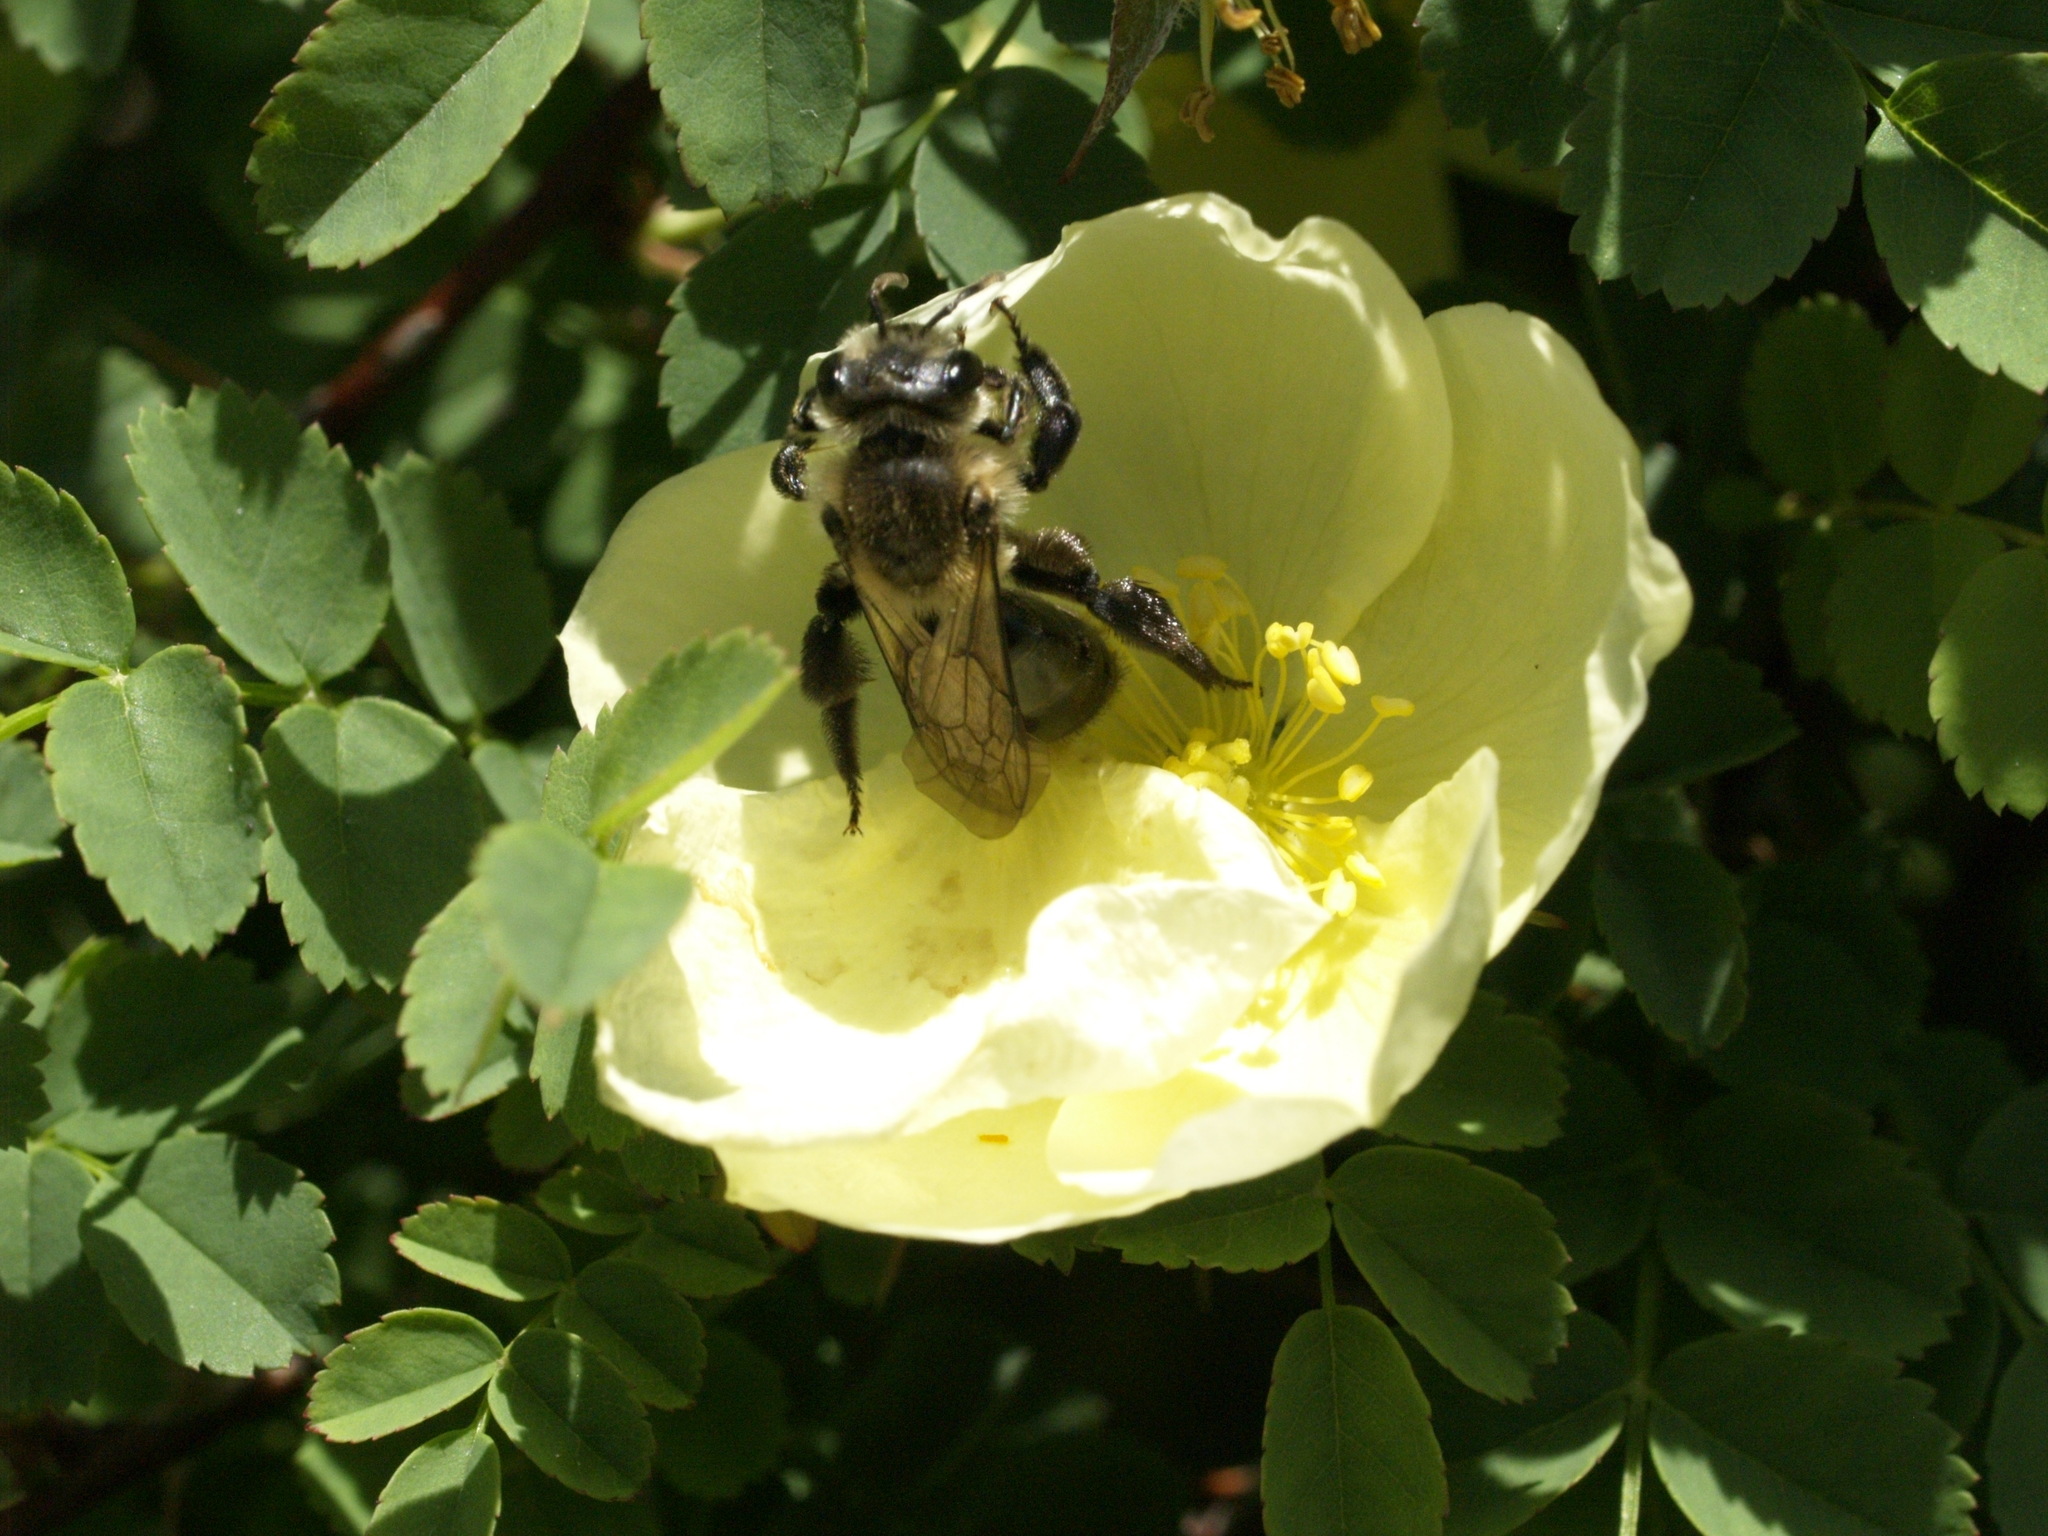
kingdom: Animalia
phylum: Arthropoda
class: Insecta
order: Hymenoptera
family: Andrenidae
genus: Andrena
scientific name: Andrena vicina
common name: Neighborly mining bee
